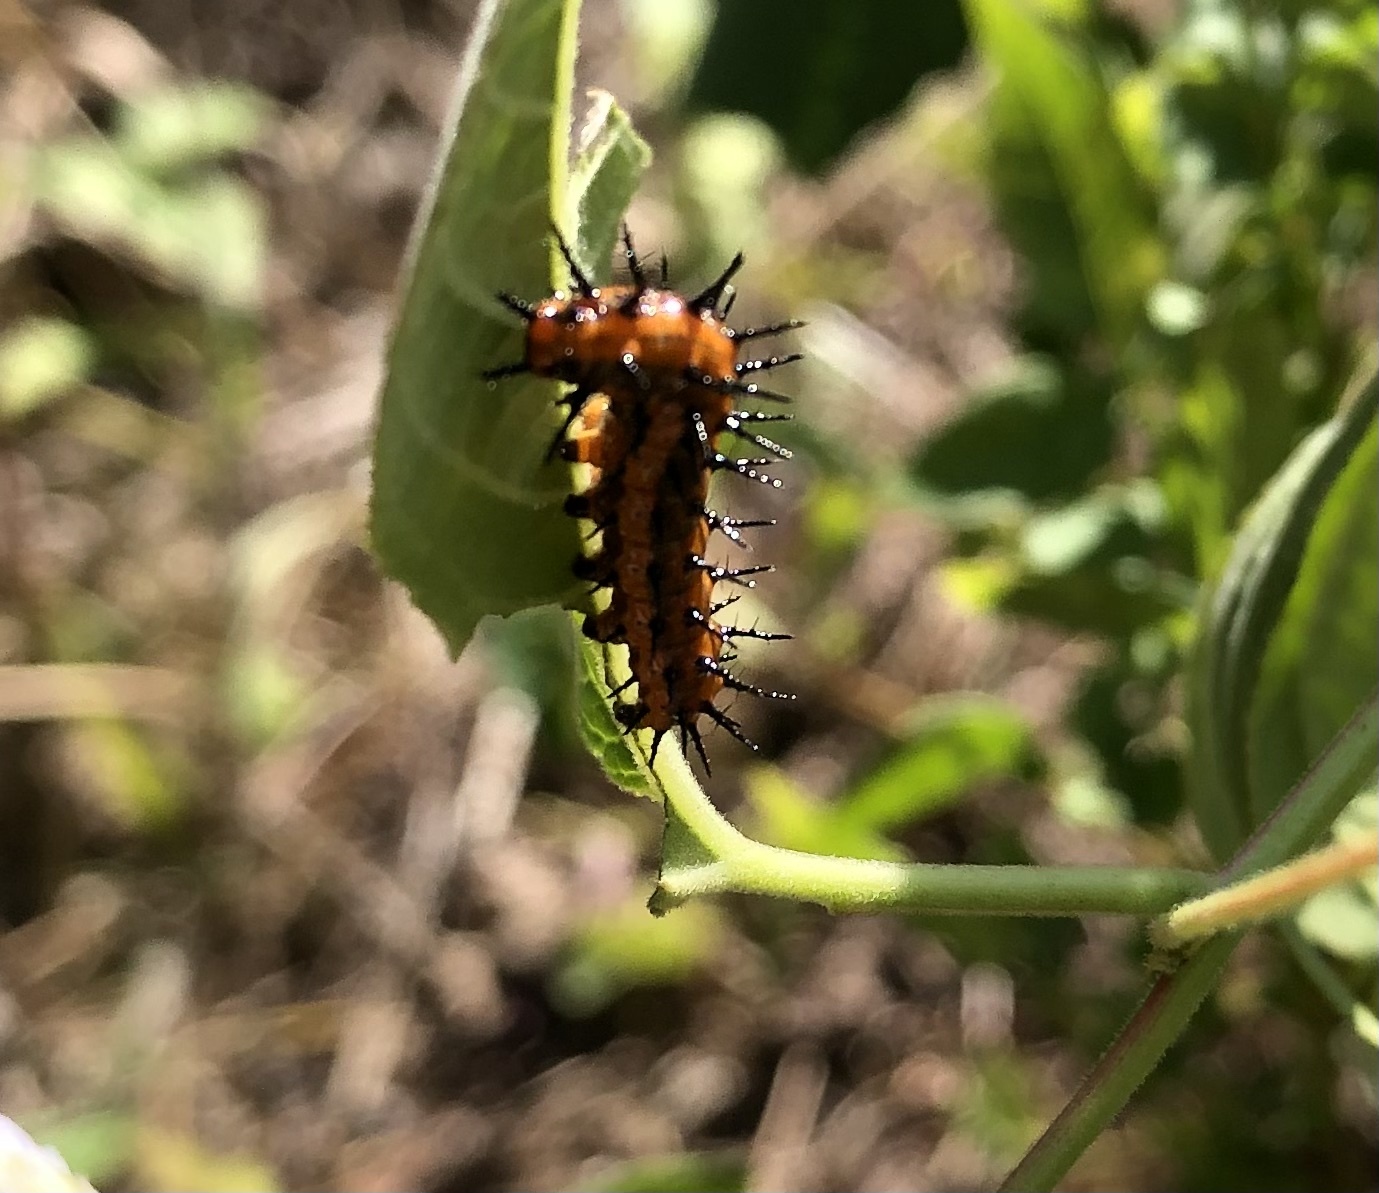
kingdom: Animalia
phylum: Arthropoda
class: Insecta
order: Lepidoptera
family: Nymphalidae
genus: Dione
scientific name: Dione vanillae
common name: Gulf fritillary
